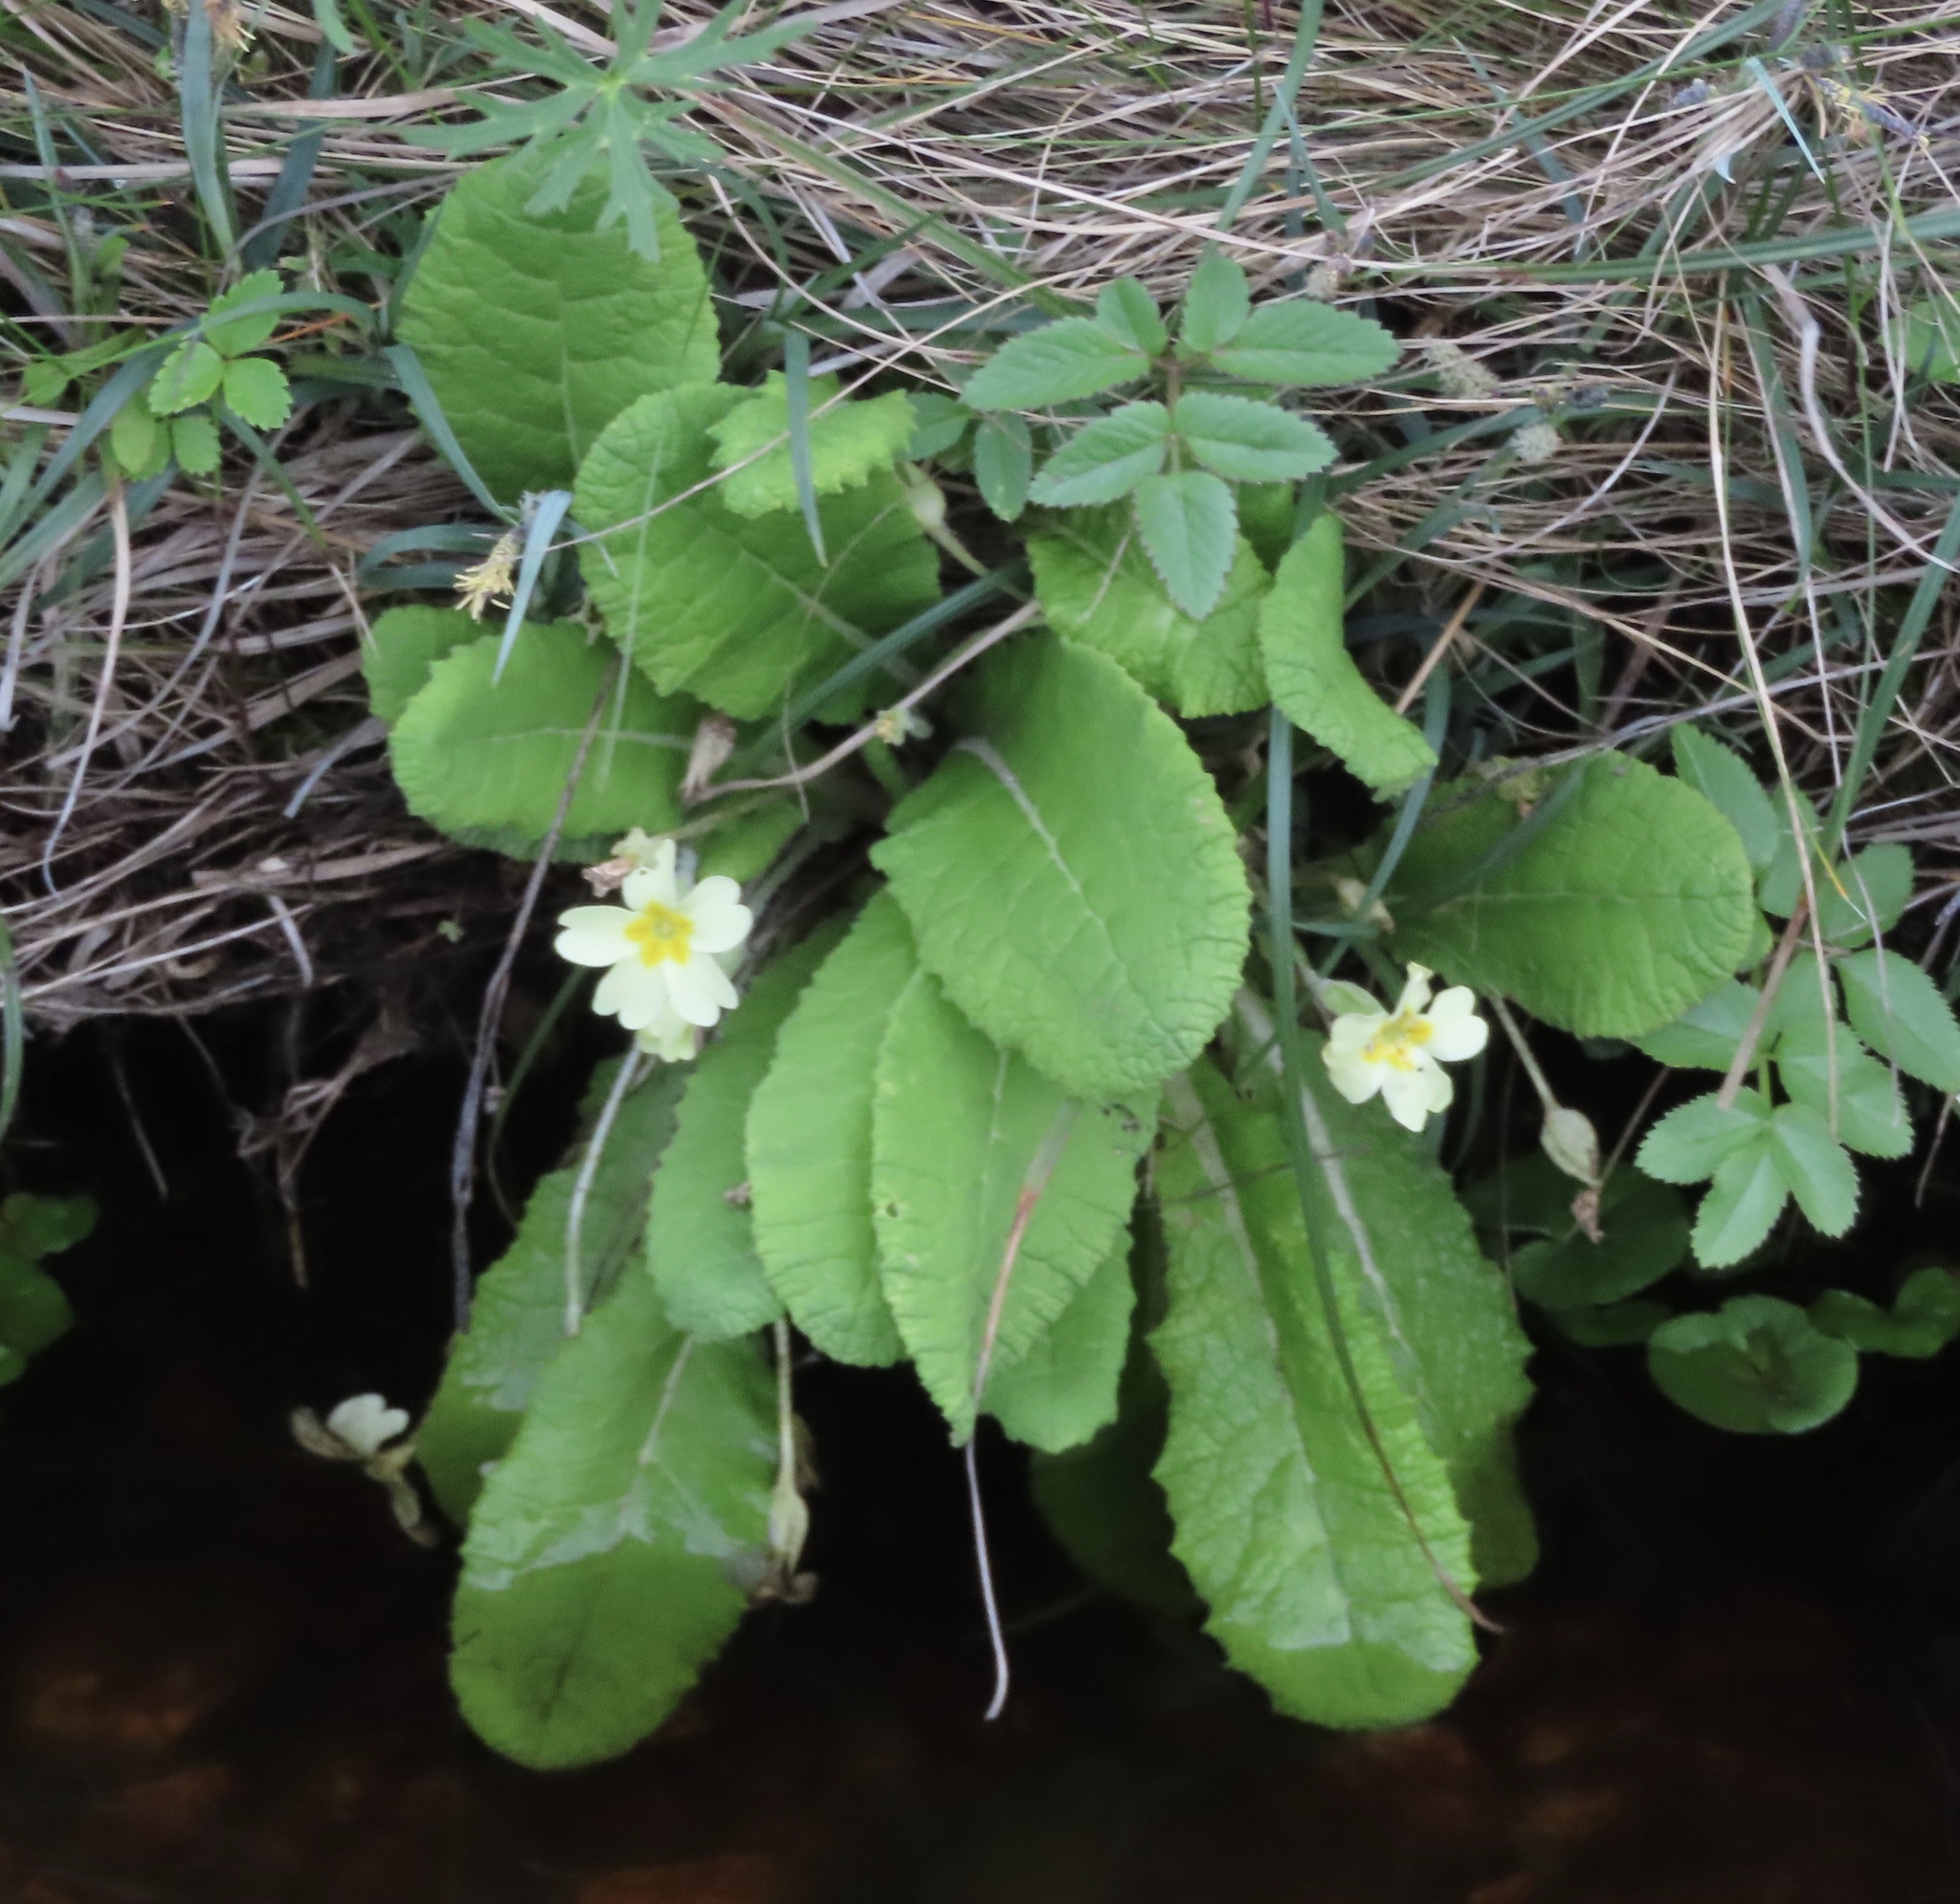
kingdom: Plantae
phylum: Tracheophyta
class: Magnoliopsida
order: Ericales
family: Primulaceae
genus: Primula
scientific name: Primula vulgaris
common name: Primrose
